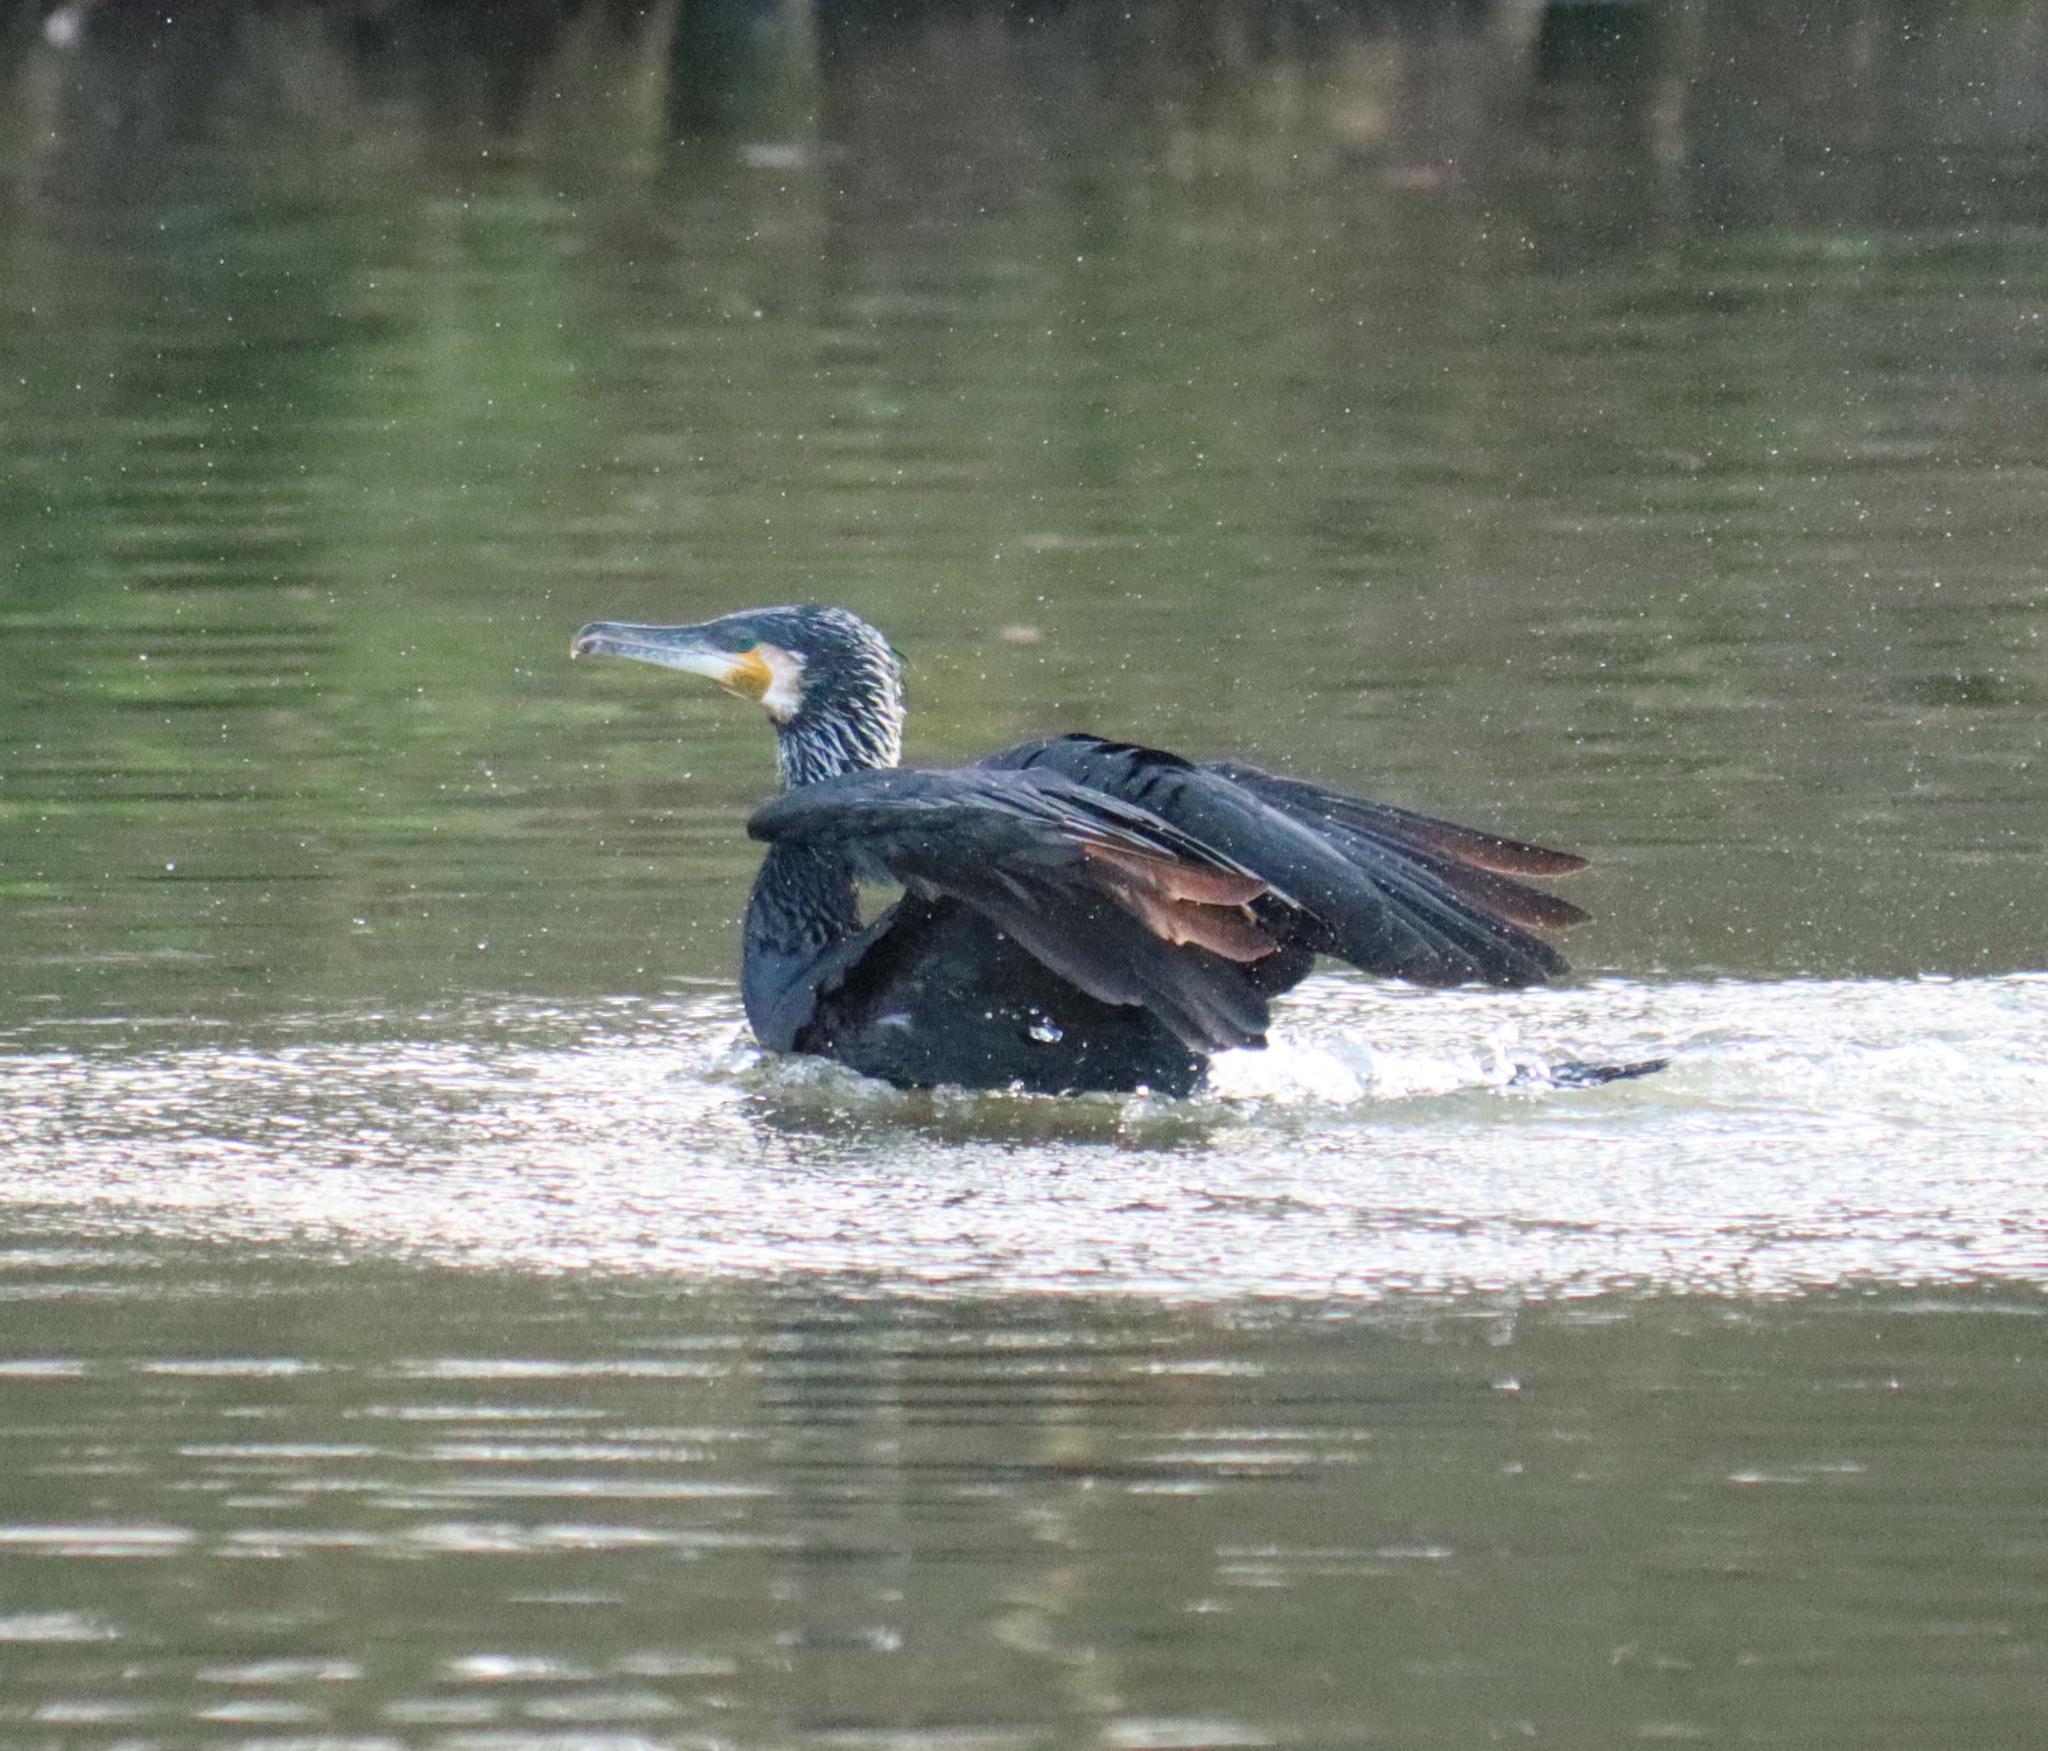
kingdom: Animalia
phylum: Chordata
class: Aves
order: Suliformes
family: Phalacrocoracidae
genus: Phalacrocorax
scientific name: Phalacrocorax carbo
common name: Great cormorant
